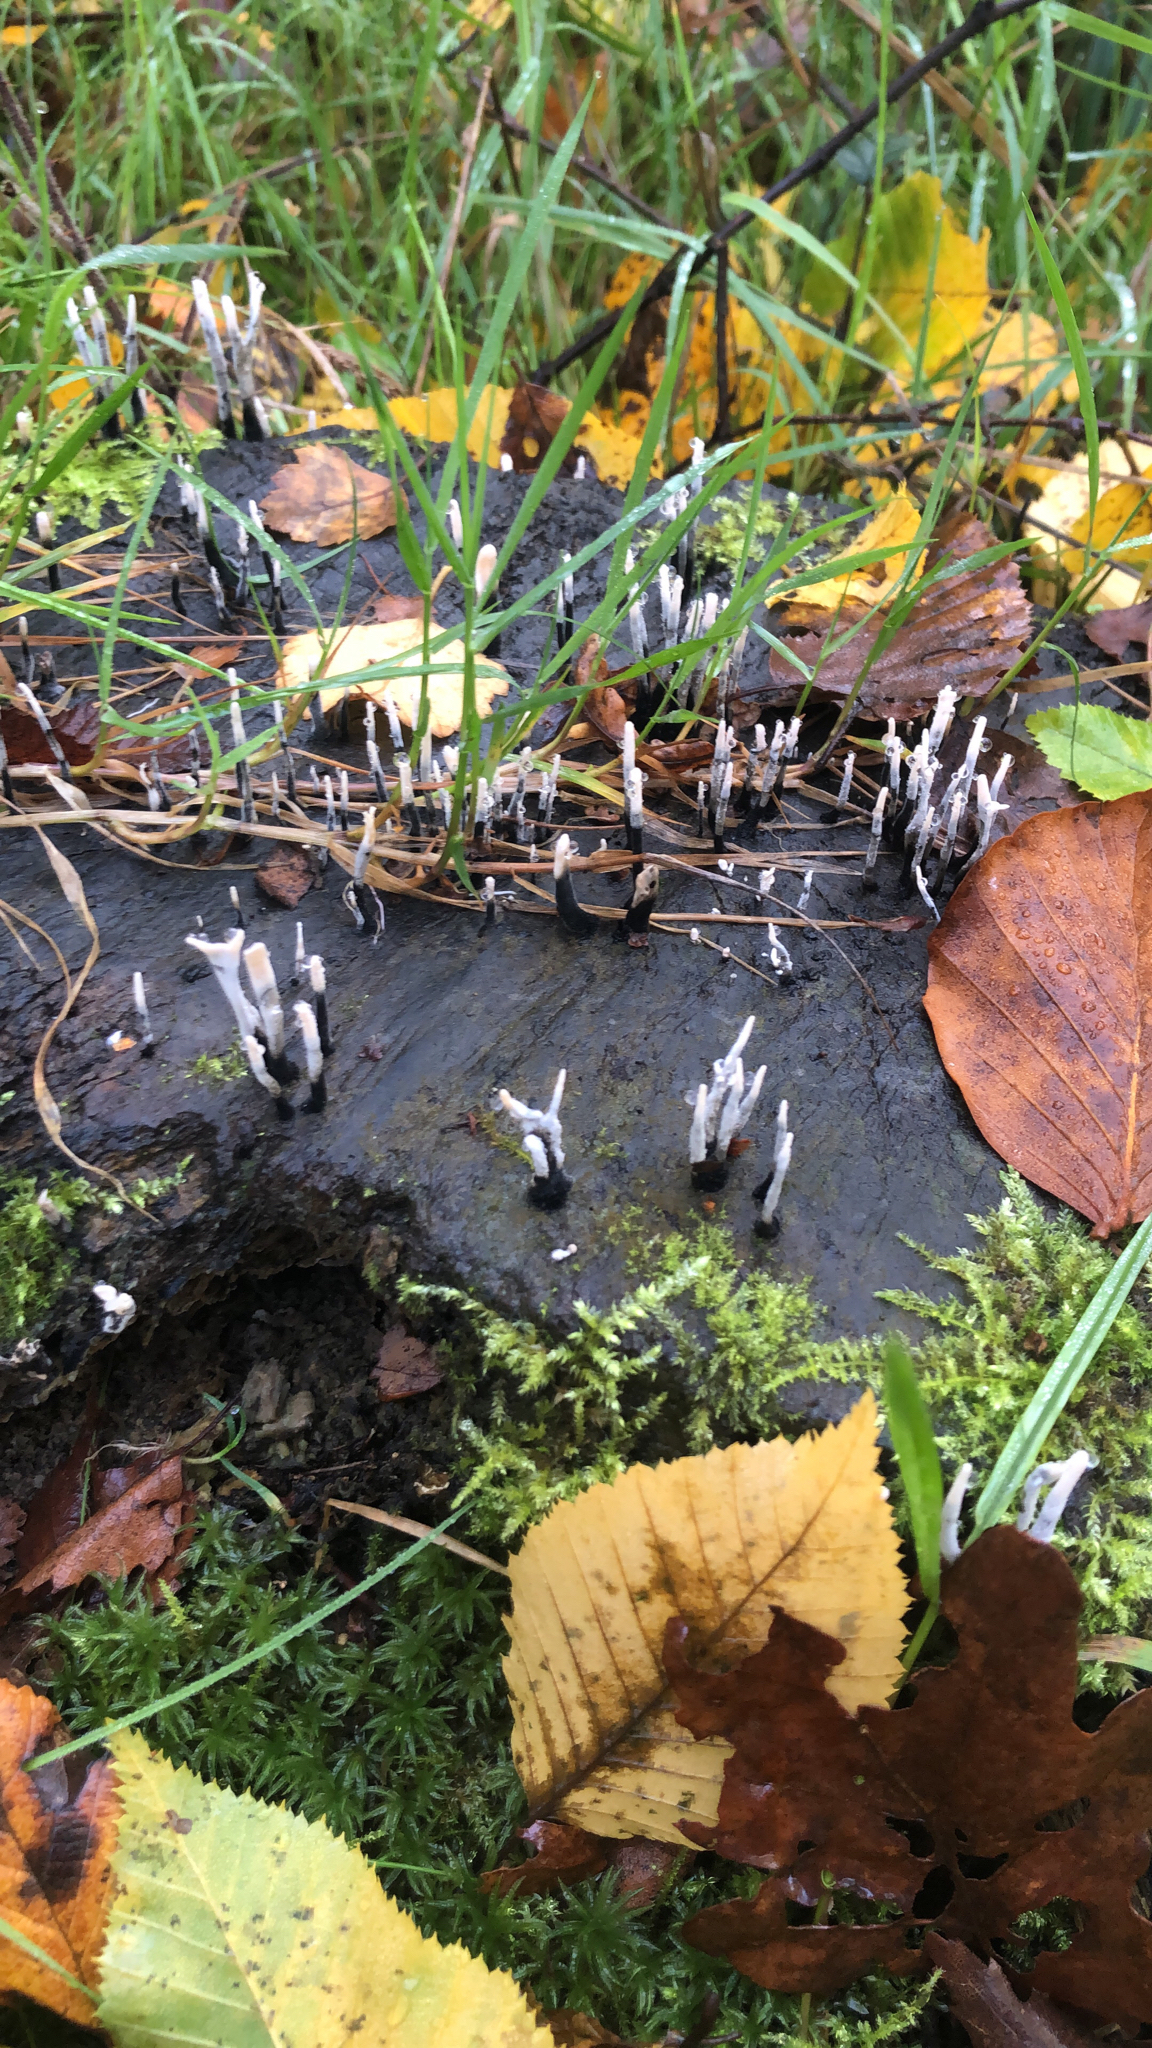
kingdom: Fungi
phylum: Ascomycota
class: Sordariomycetes
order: Xylariales
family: Xylariaceae
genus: Xylaria
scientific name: Xylaria hypoxylon
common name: Candle-snuff fungus
